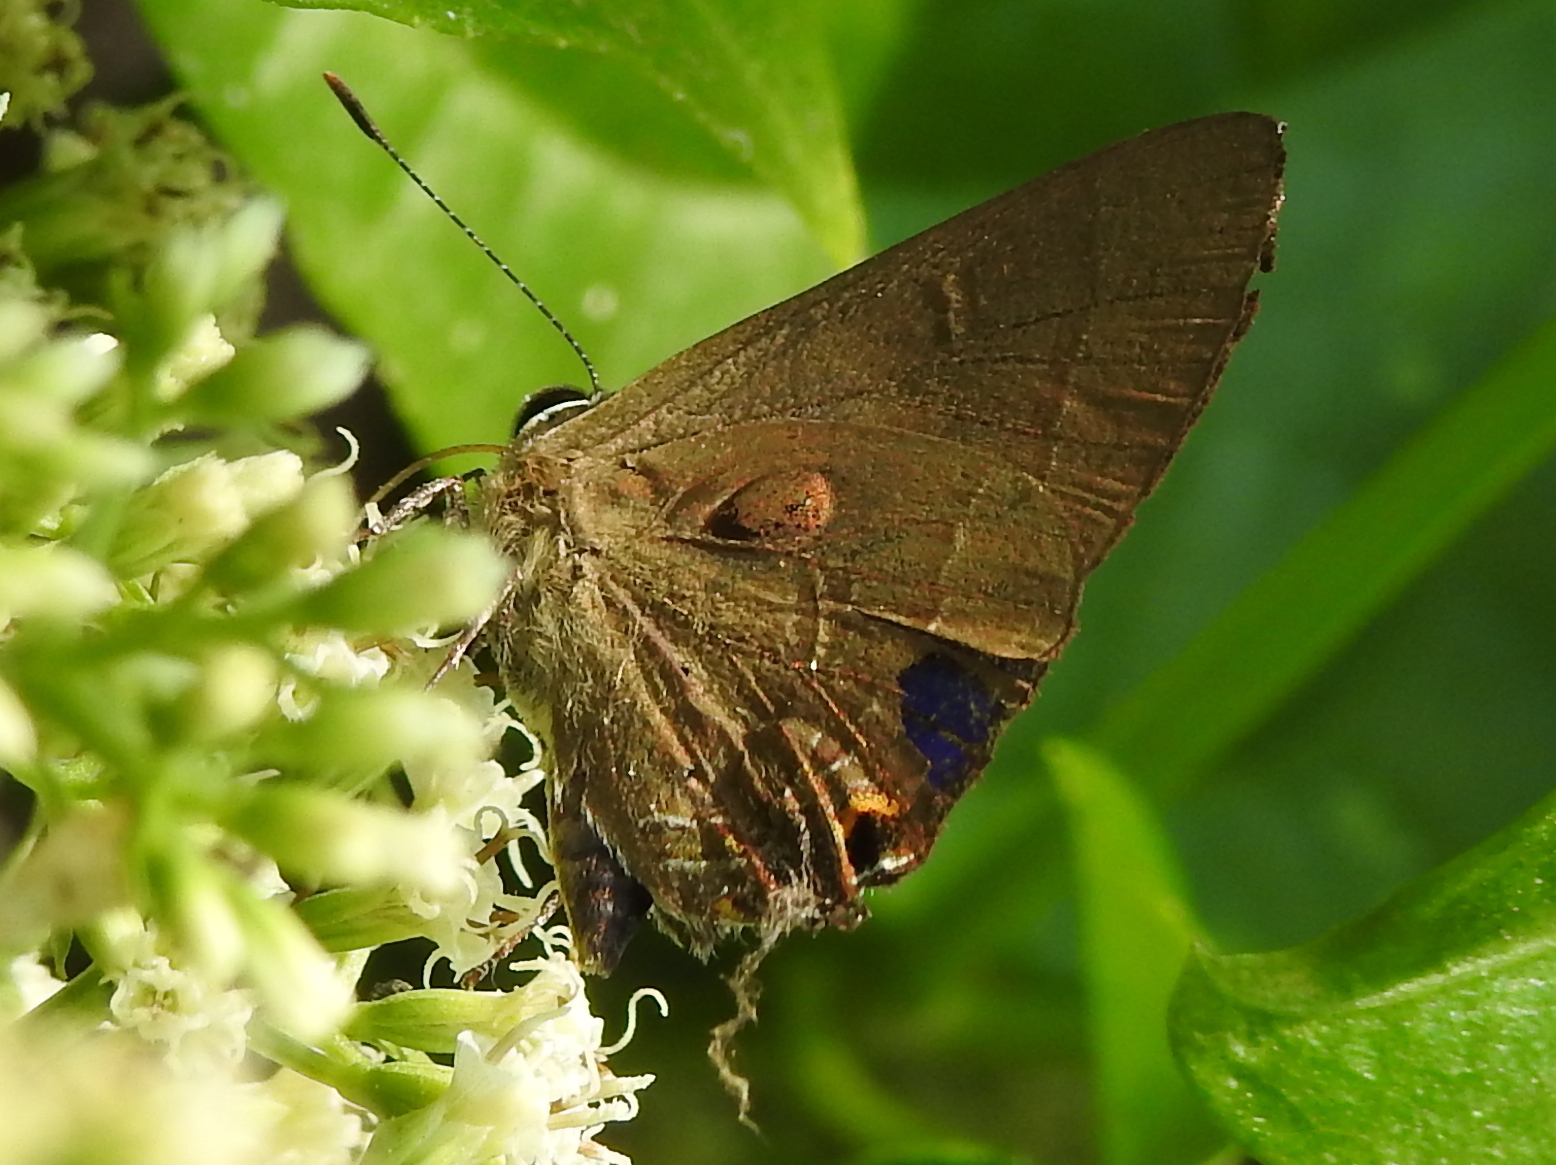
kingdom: Animalia
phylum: Arthropoda
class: Insecta
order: Lepidoptera
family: Lycaenidae
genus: Rapala
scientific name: Rapala manea
